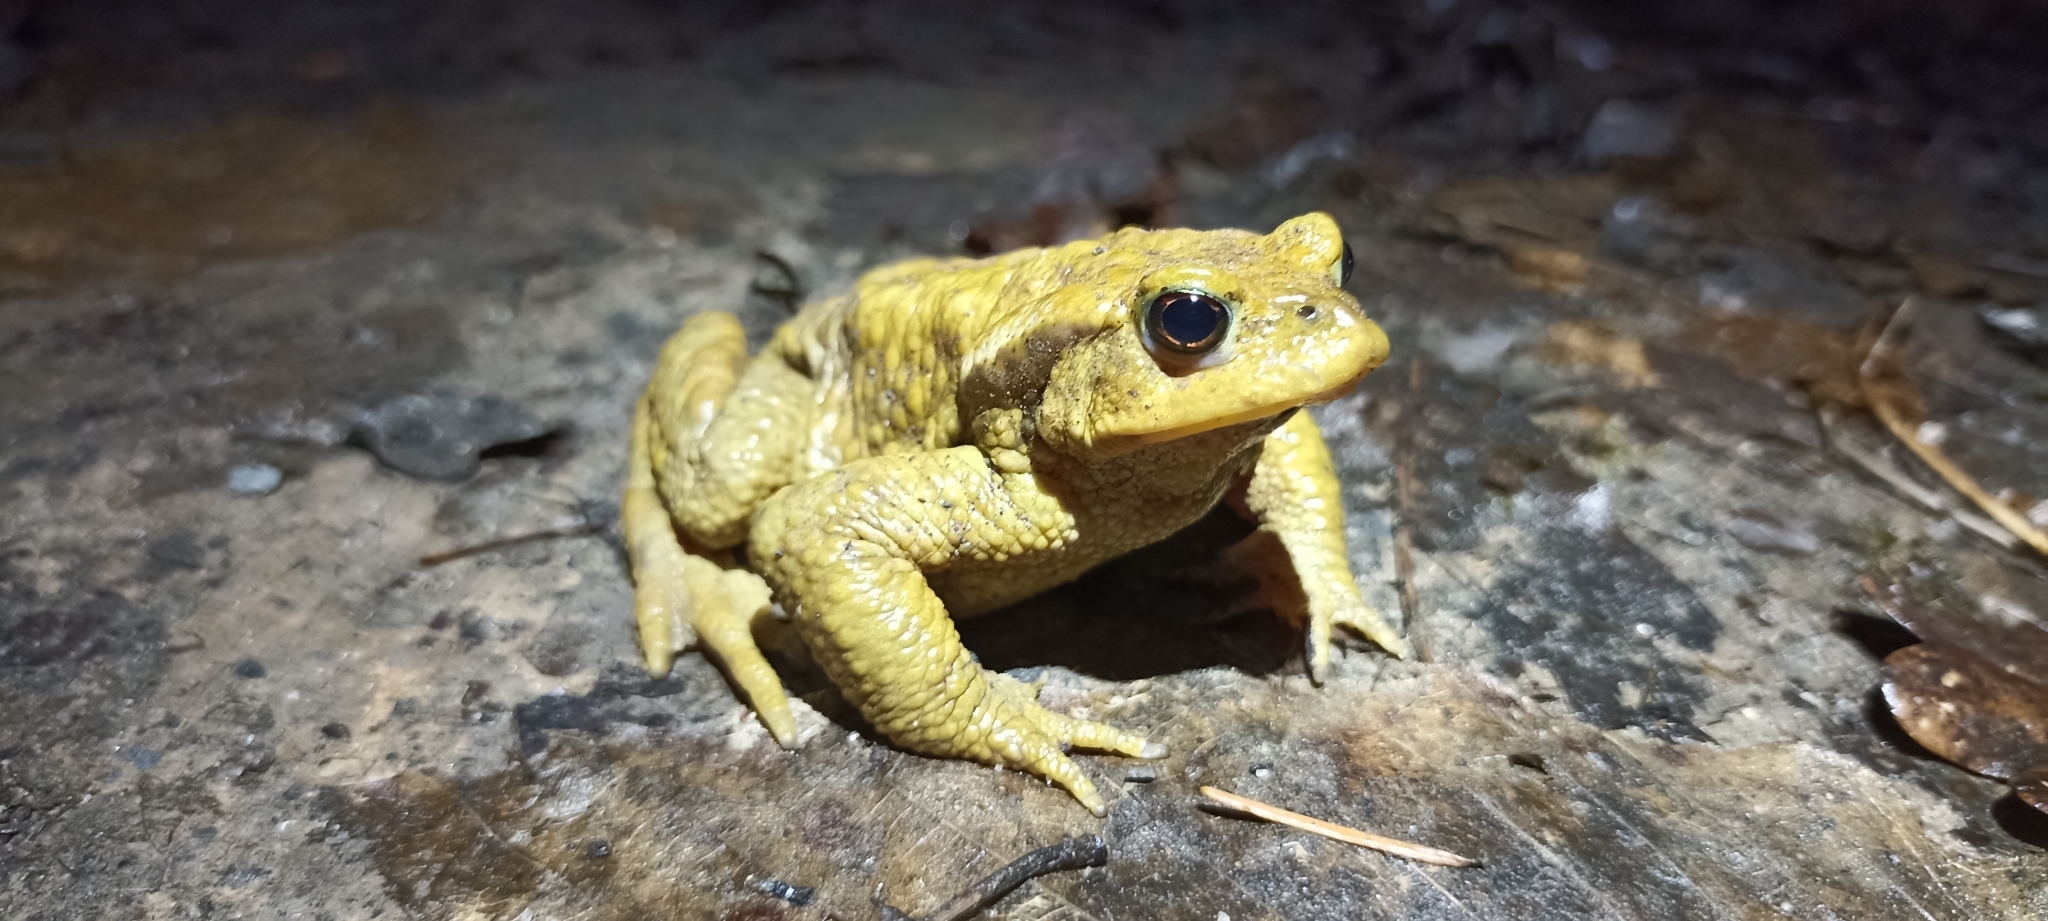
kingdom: Animalia
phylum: Chordata
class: Amphibia
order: Anura
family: Bufonidae
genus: Bufo
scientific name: Bufo spinosus
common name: Western common toad
